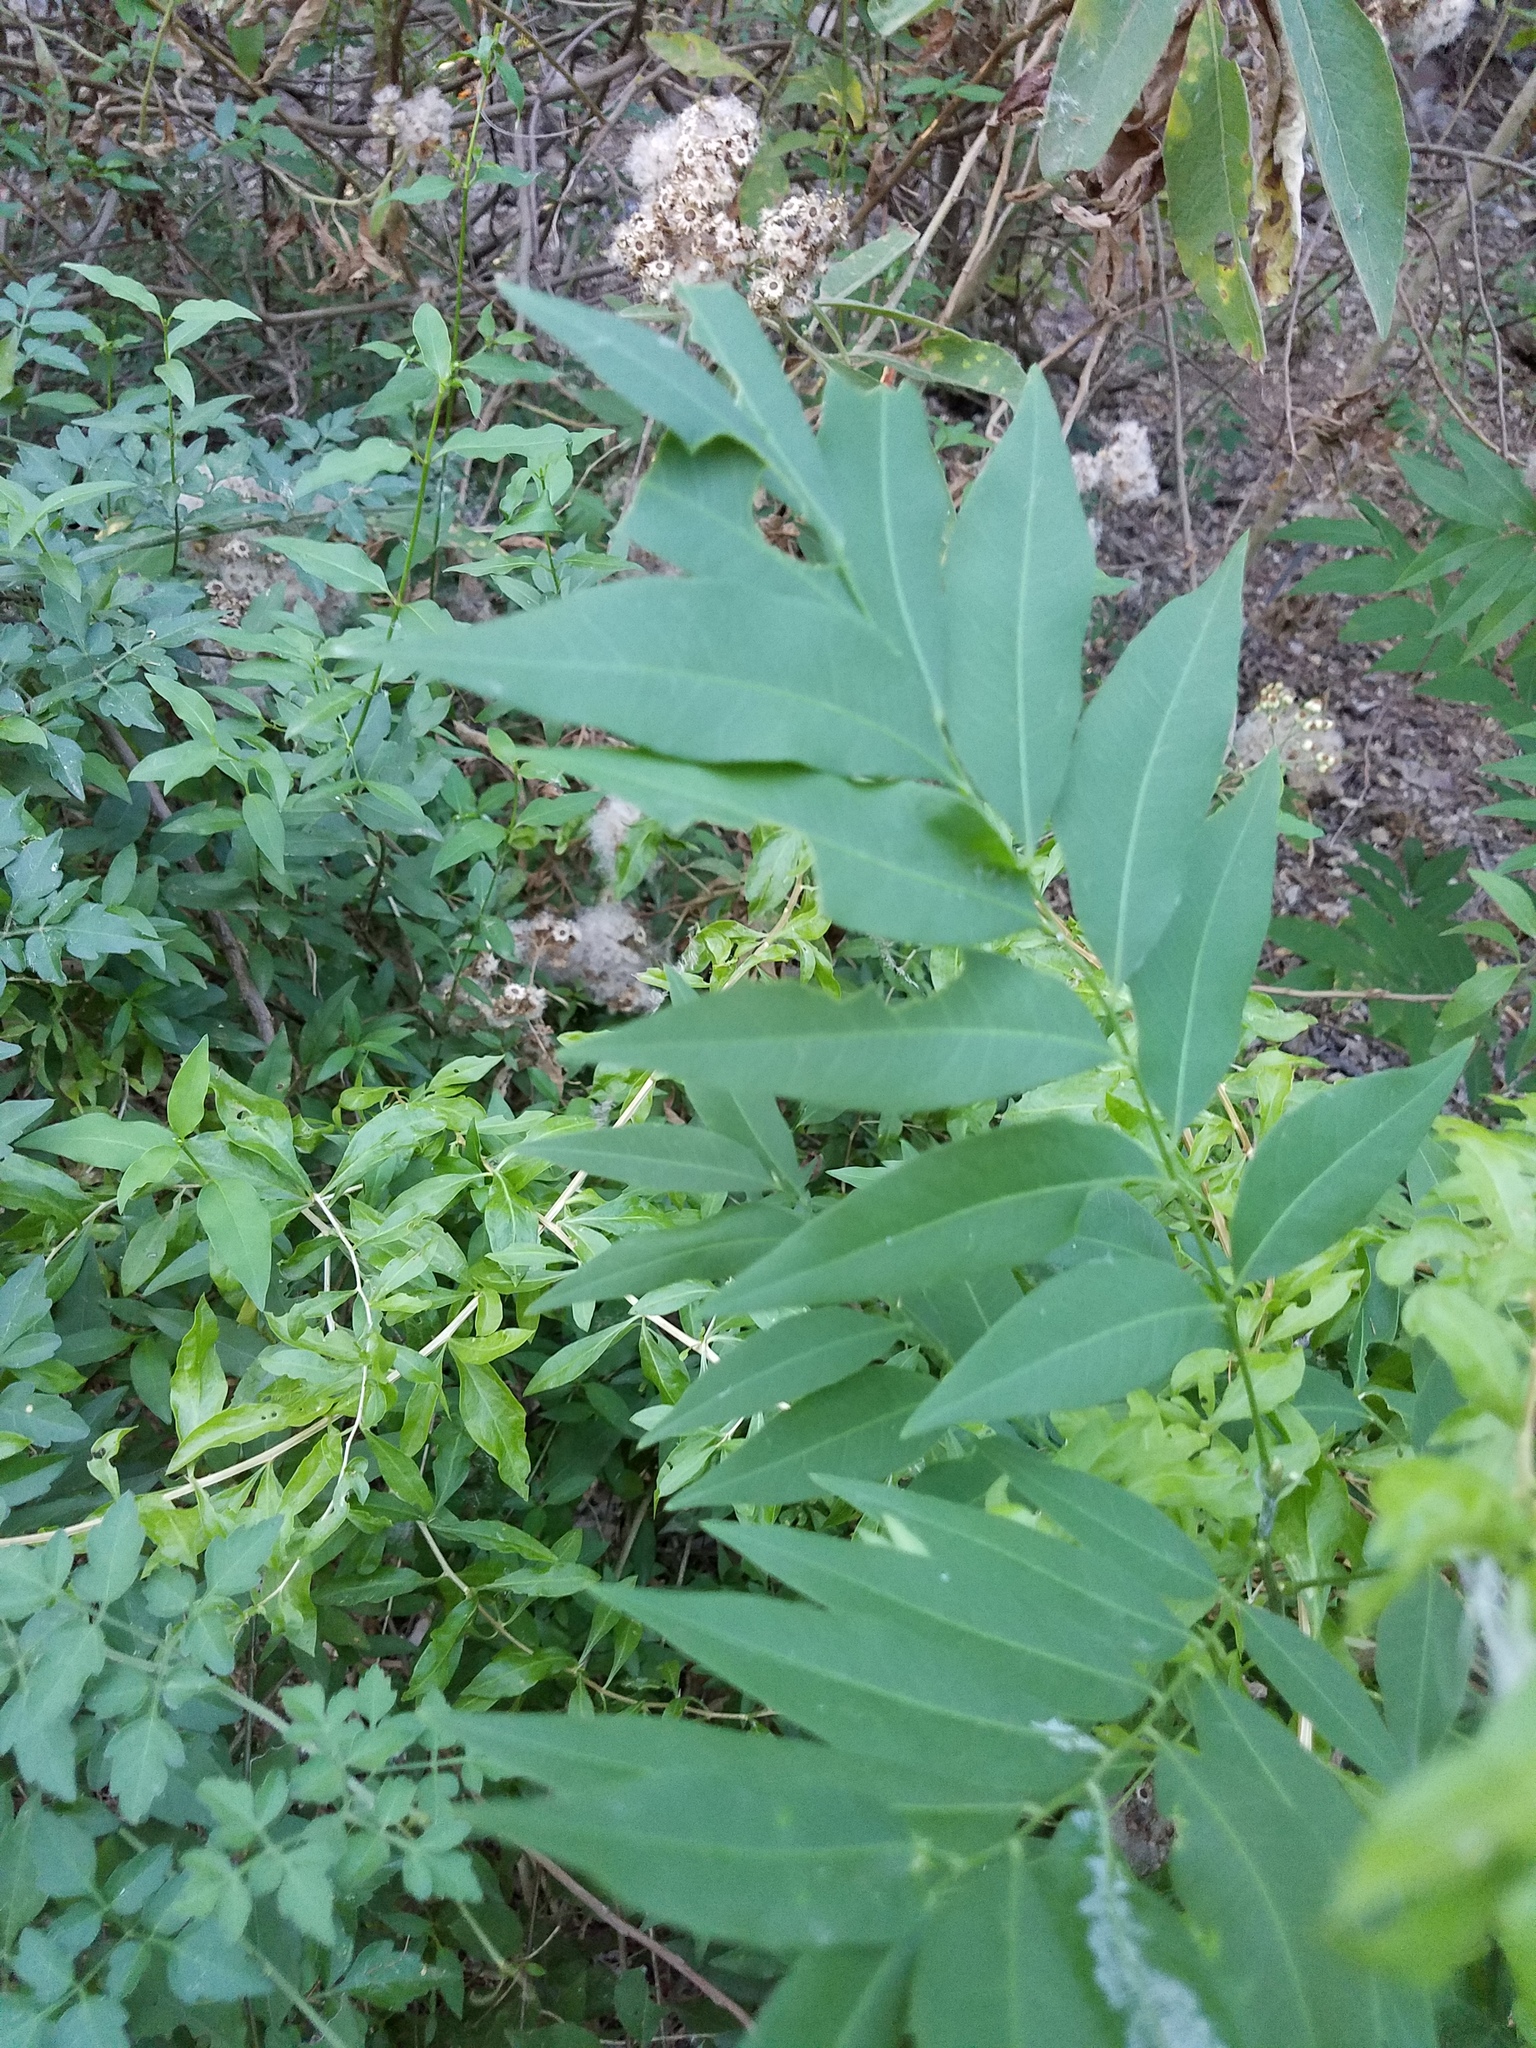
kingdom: Plantae
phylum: Tracheophyta
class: Magnoliopsida
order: Sapindales
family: Sapindaceae
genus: Sapindus
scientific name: Sapindus drummondii
